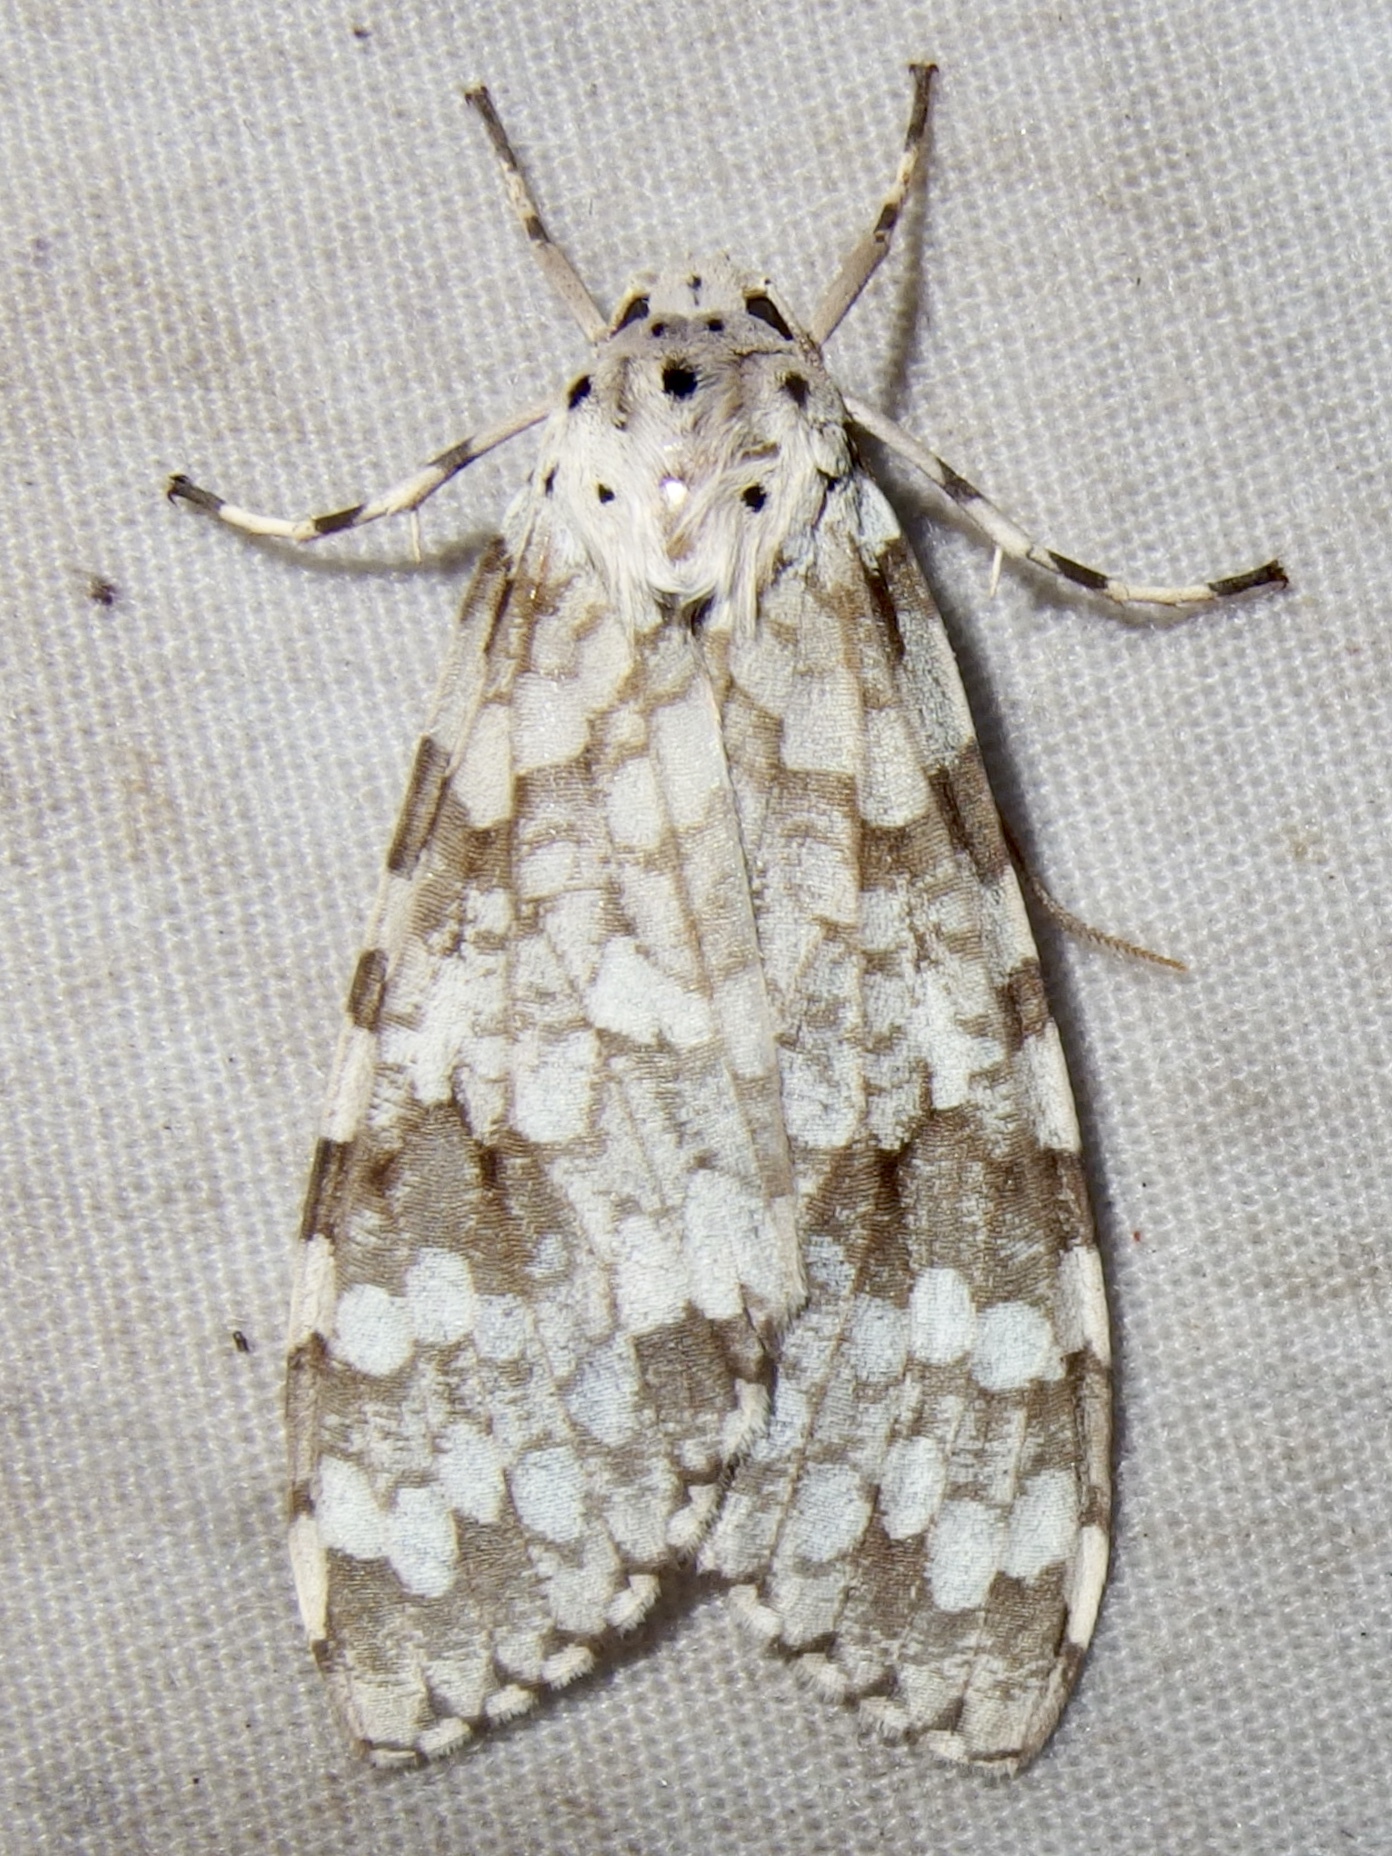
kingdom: Animalia
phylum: Arthropoda
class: Insecta
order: Lepidoptera
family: Erebidae
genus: Carales
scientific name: Carales arizonensis
